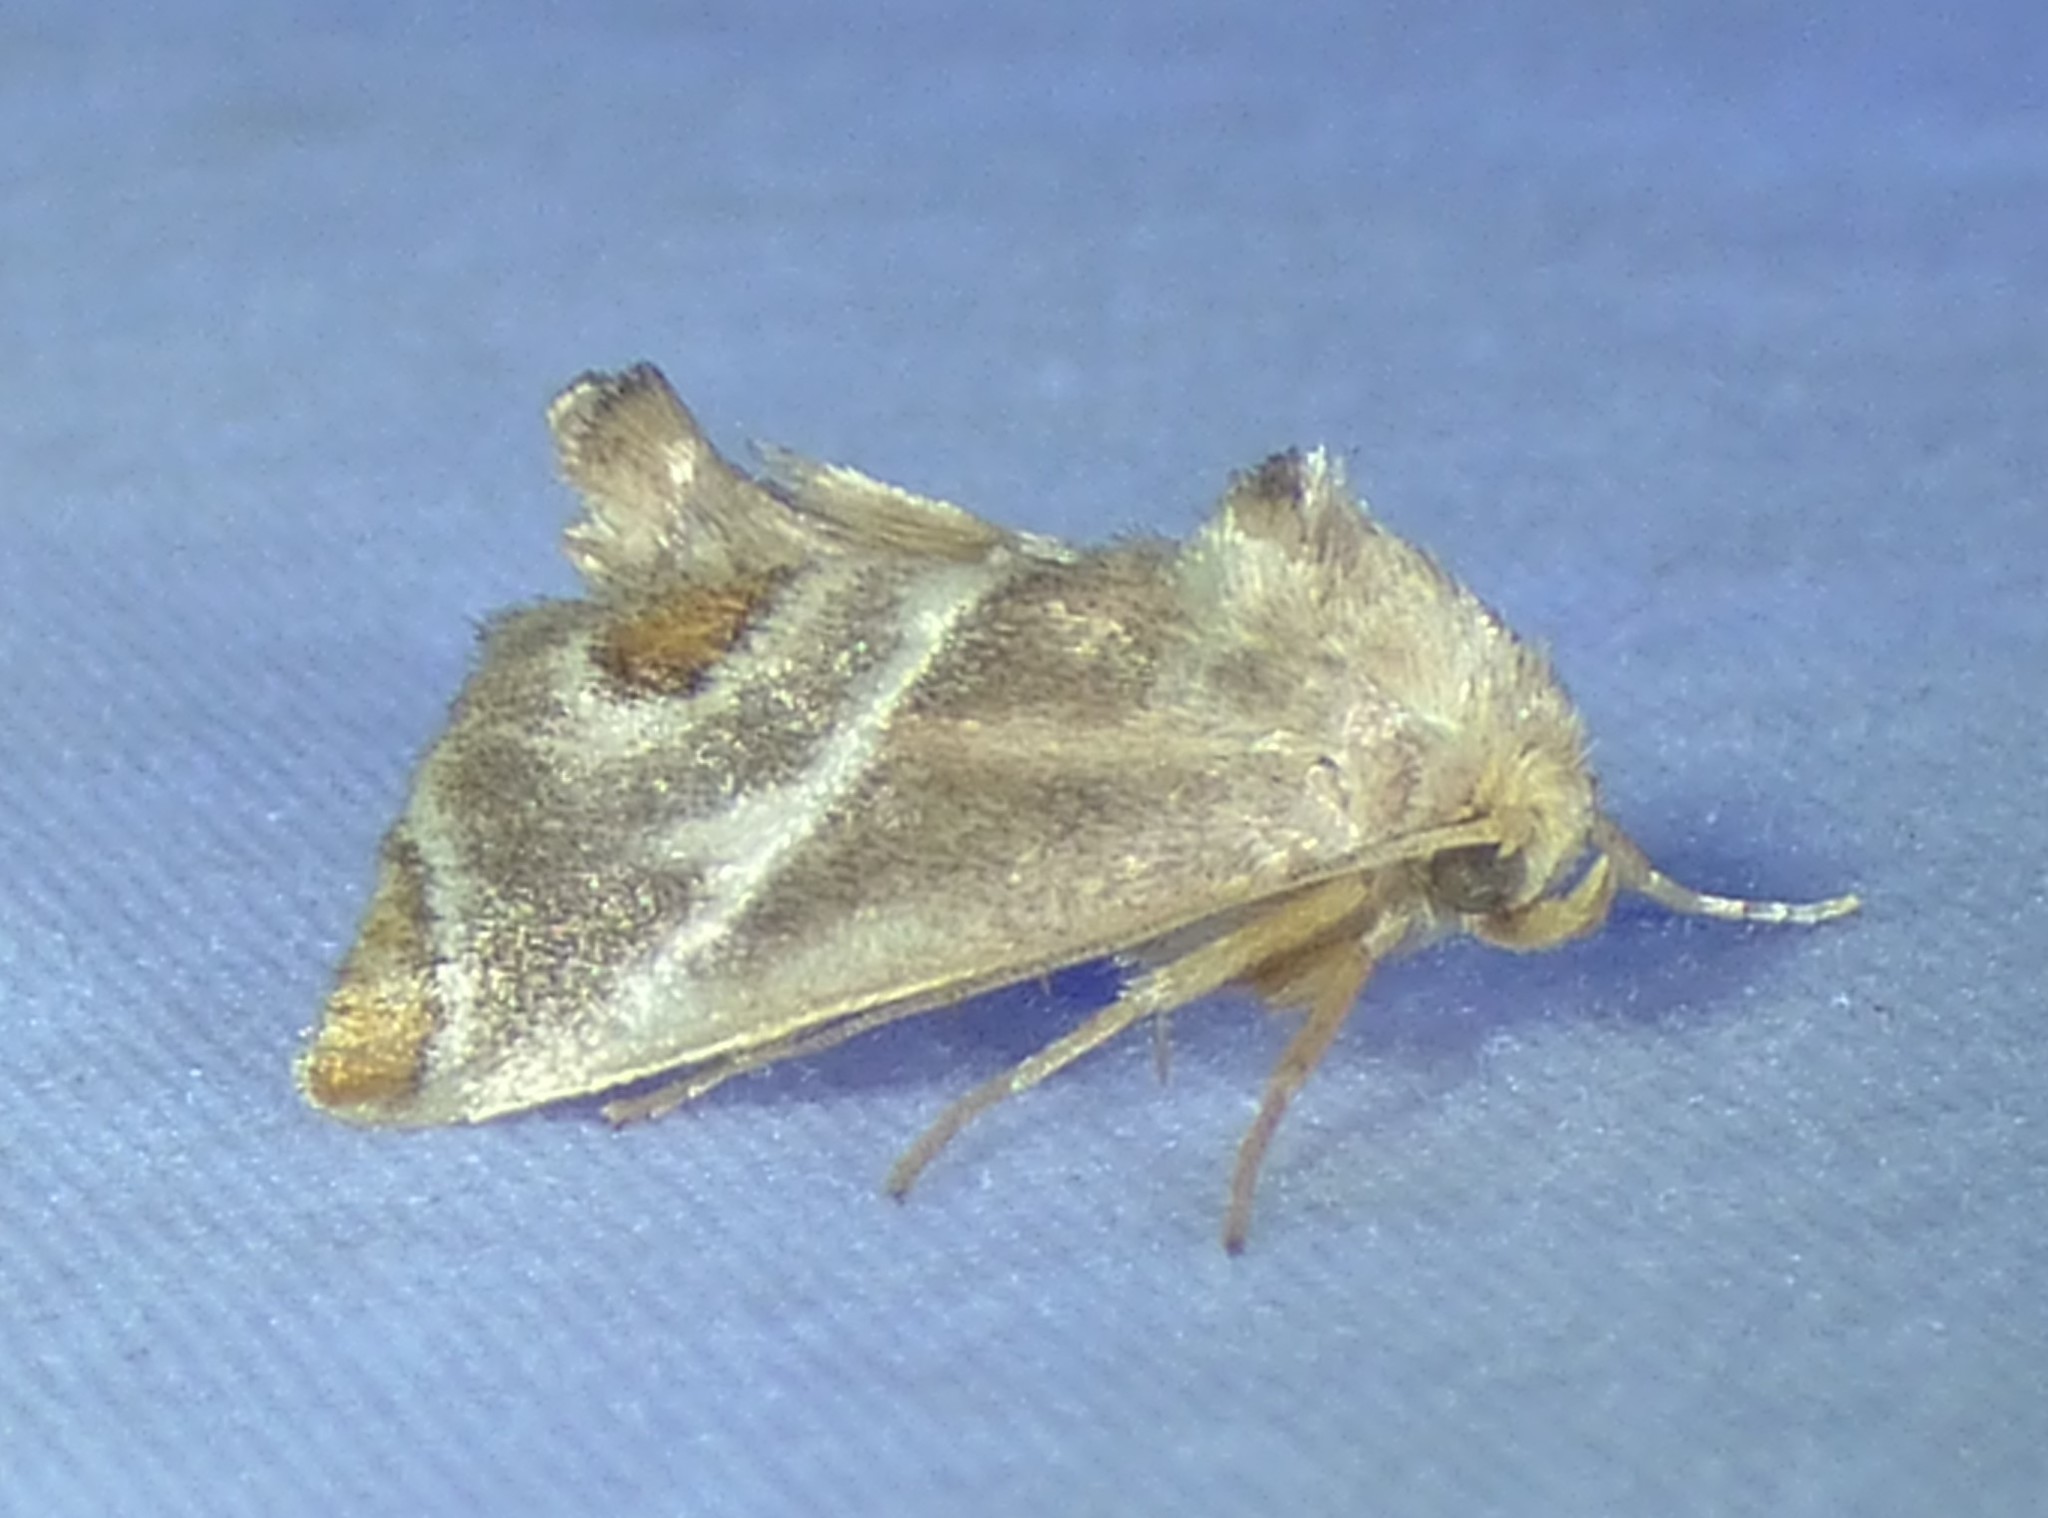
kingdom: Animalia
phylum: Arthropoda
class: Insecta
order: Lepidoptera
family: Limacodidae
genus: Apoda
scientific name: Apoda biguttata
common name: Shagreened slug moth
